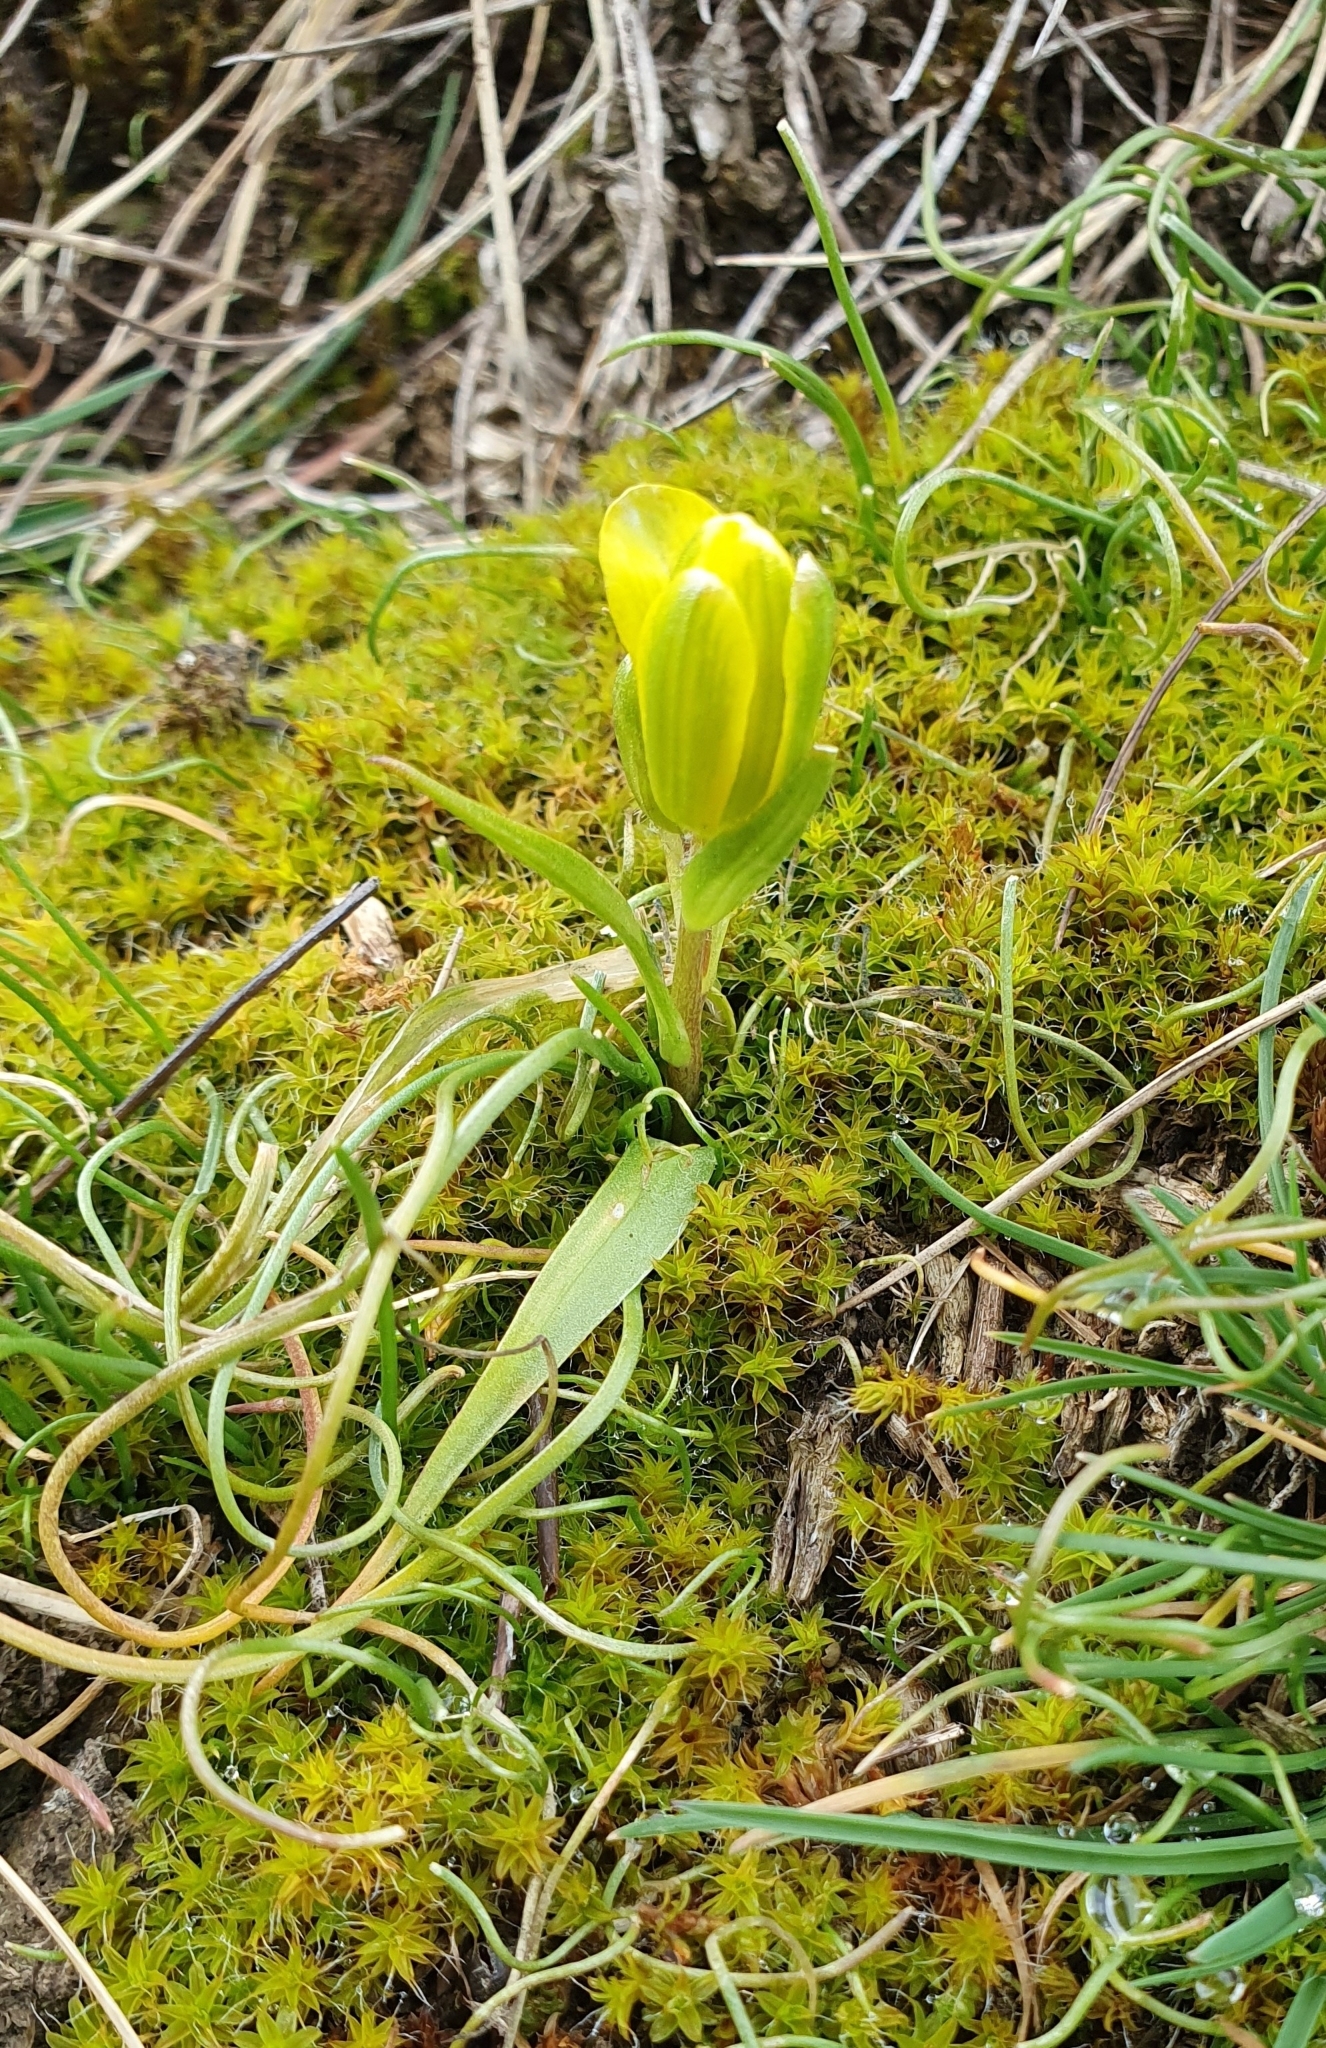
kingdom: Plantae
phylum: Tracheophyta
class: Liliopsida
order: Liliales
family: Liliaceae
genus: Gagea
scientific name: Gagea bohemica
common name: Early star-of-bethlehem
